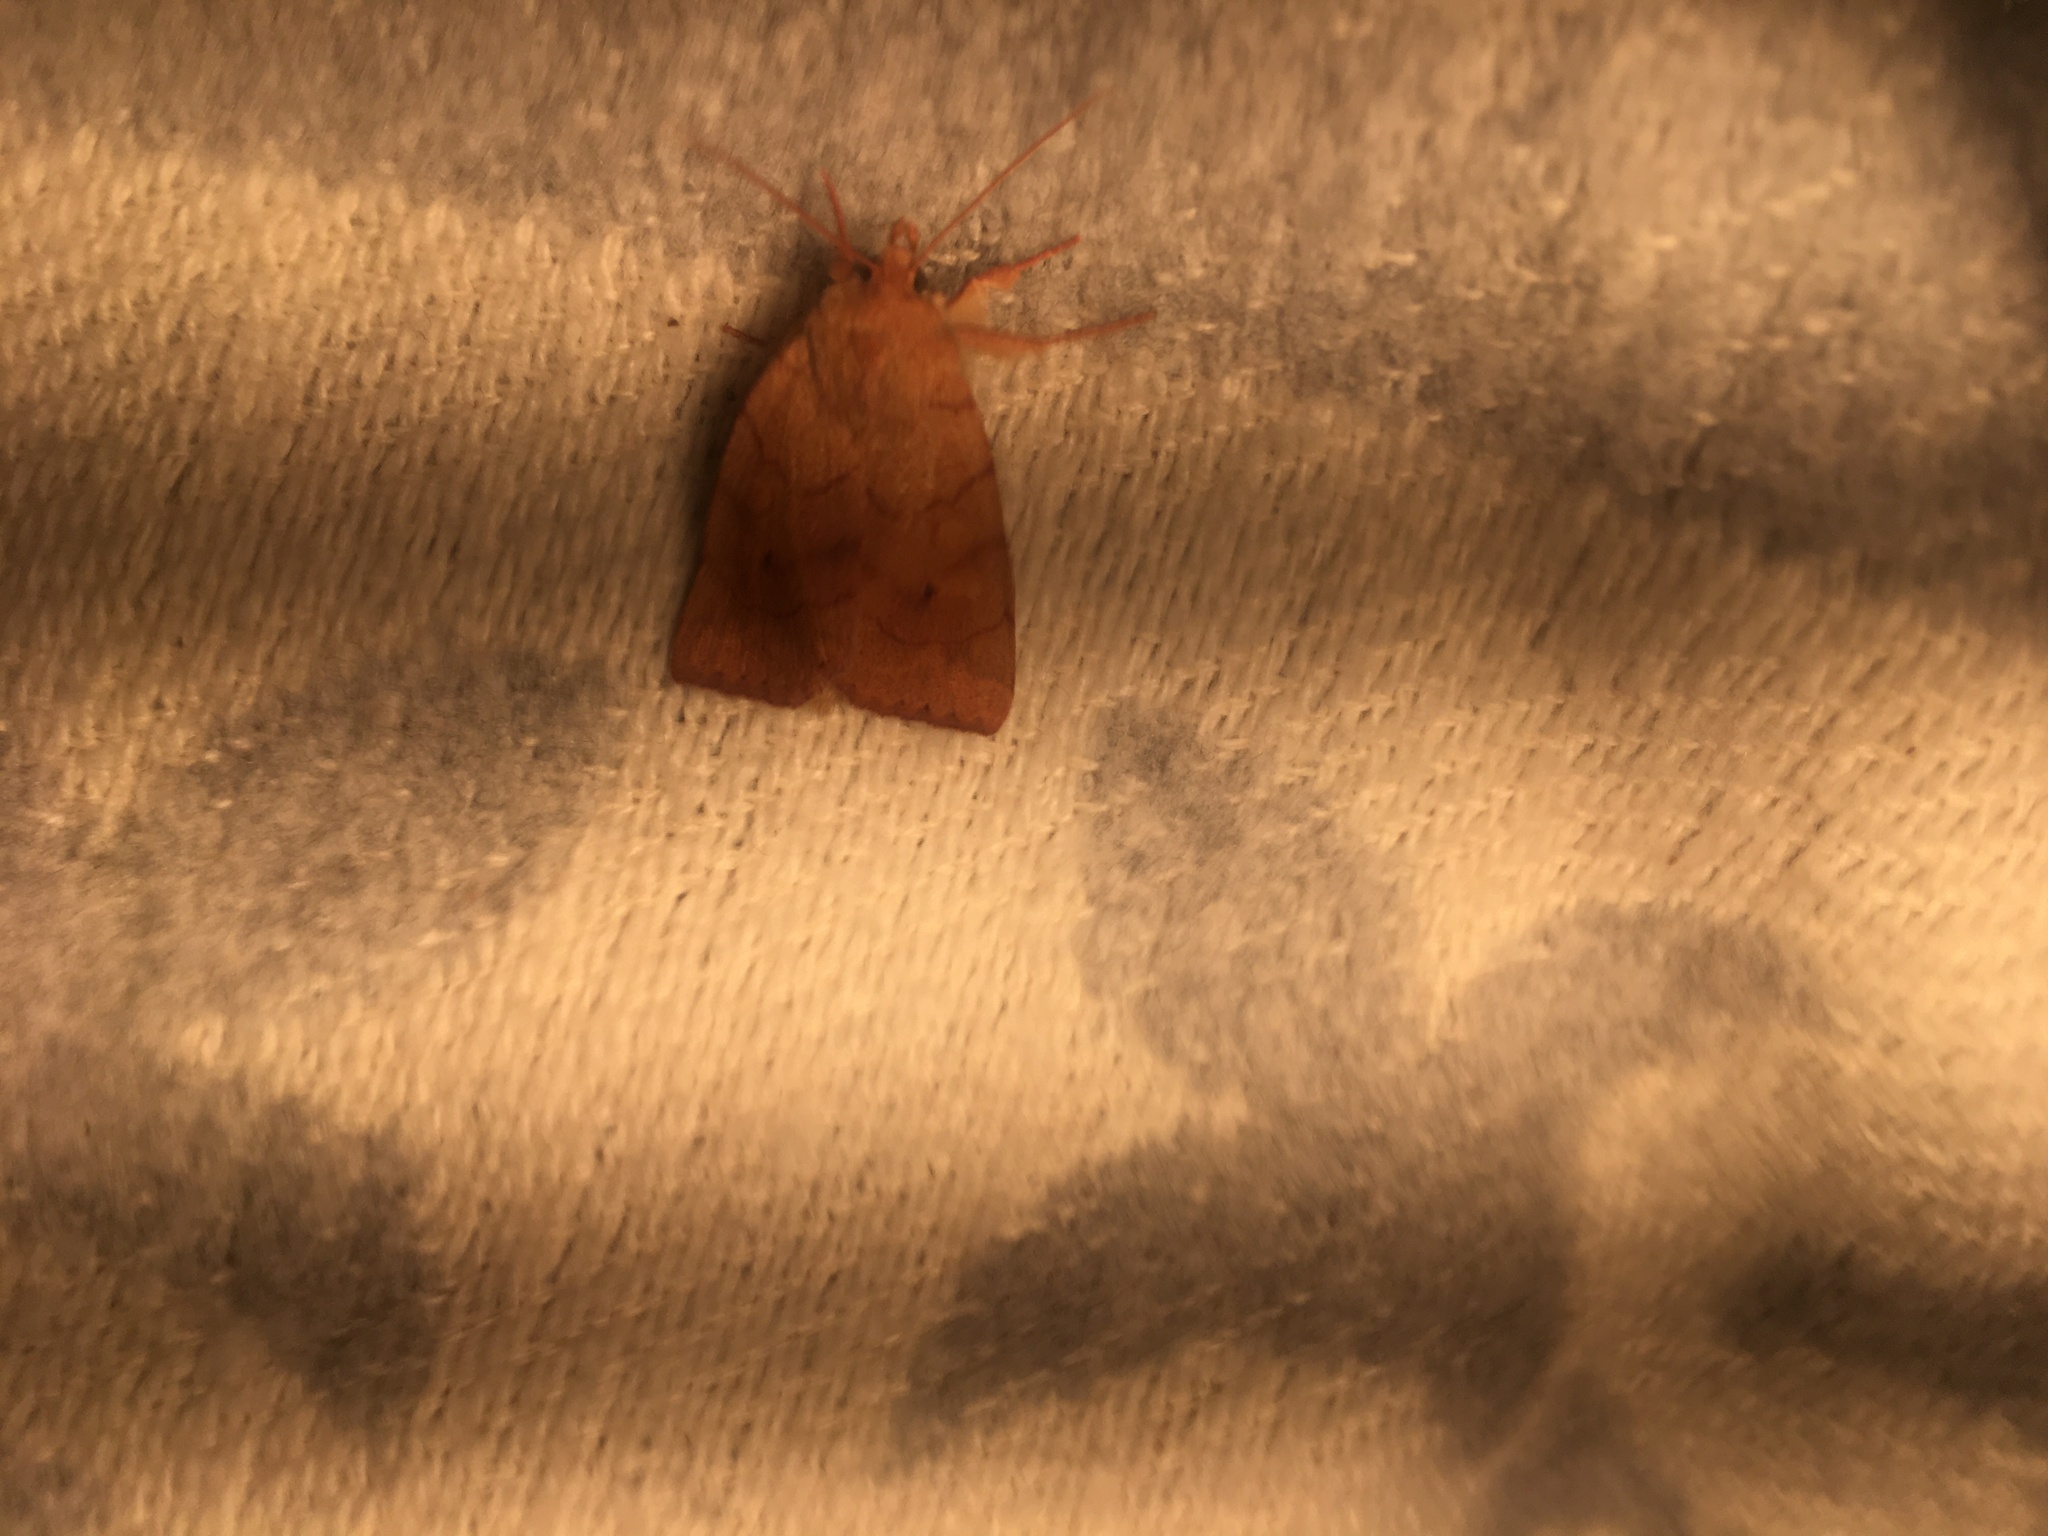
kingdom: Animalia
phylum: Arthropoda
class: Insecta
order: Lepidoptera
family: Noctuidae
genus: Enargia
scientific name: Enargia paleacea
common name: Angle-striped sallow
